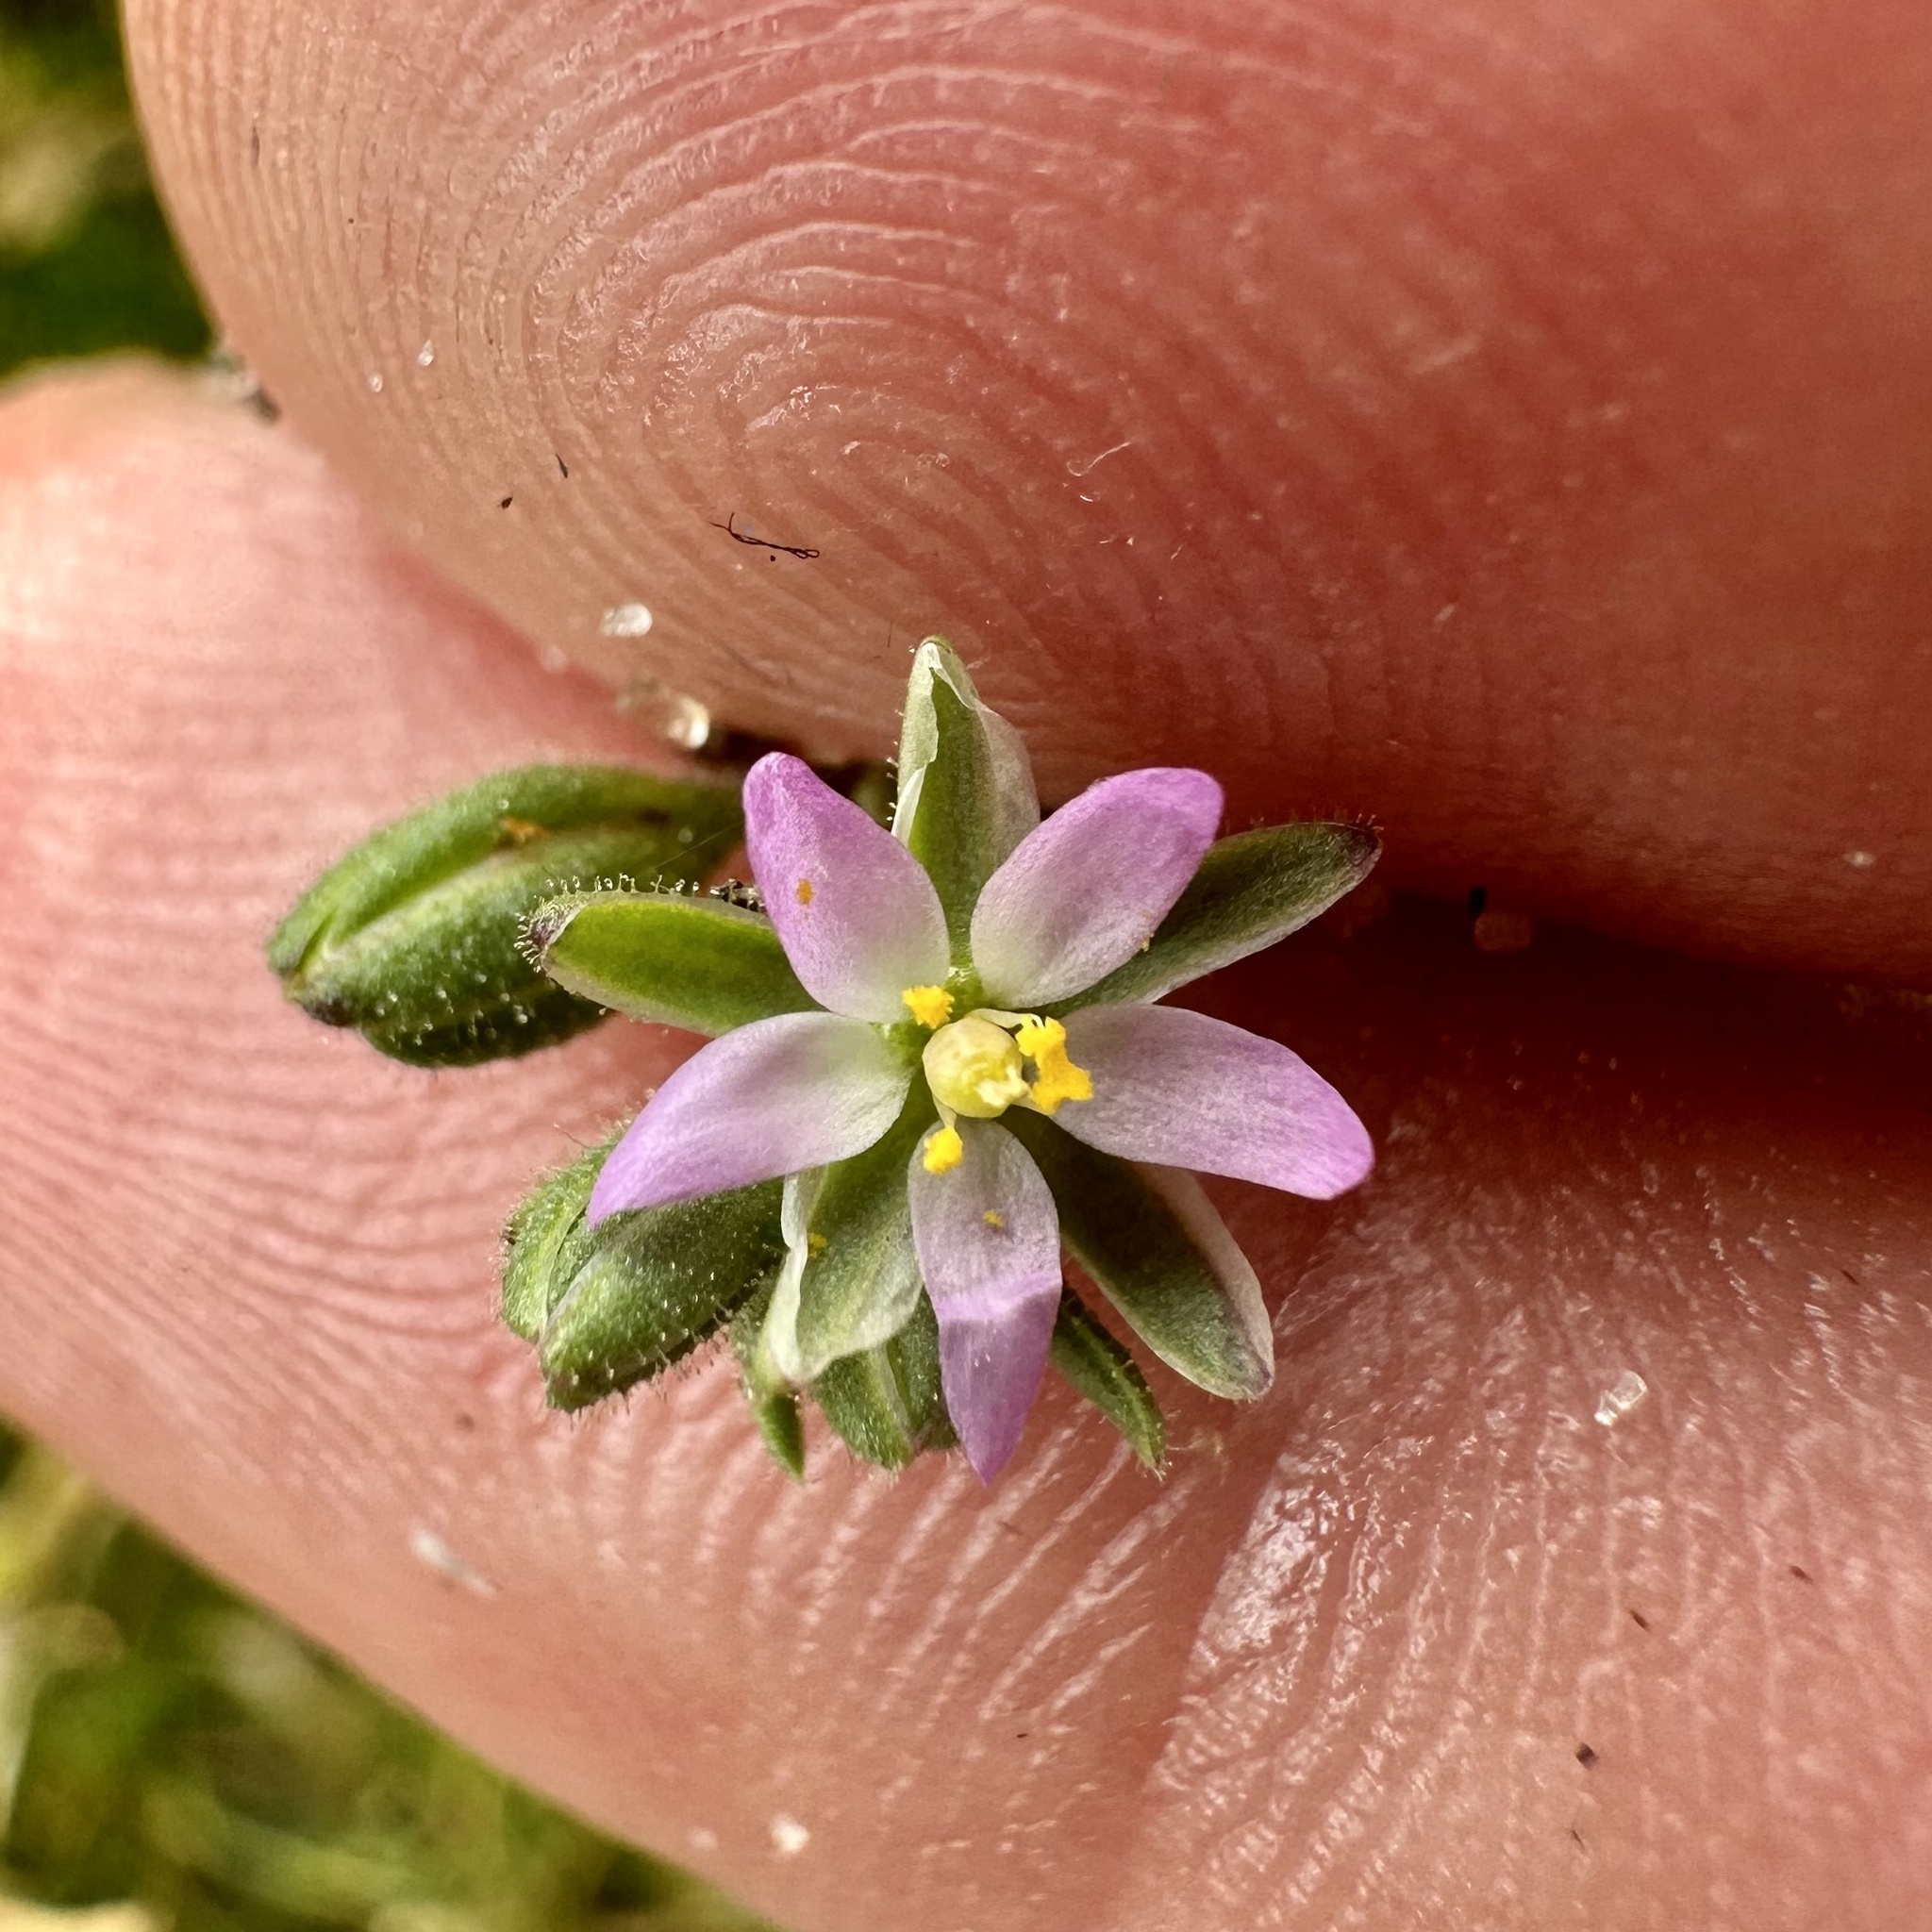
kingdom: Plantae
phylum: Tracheophyta
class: Magnoliopsida
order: Caryophyllales
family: Caryophyllaceae
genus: Spergularia
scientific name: Spergularia marina
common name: Lesser sea-spurrey
